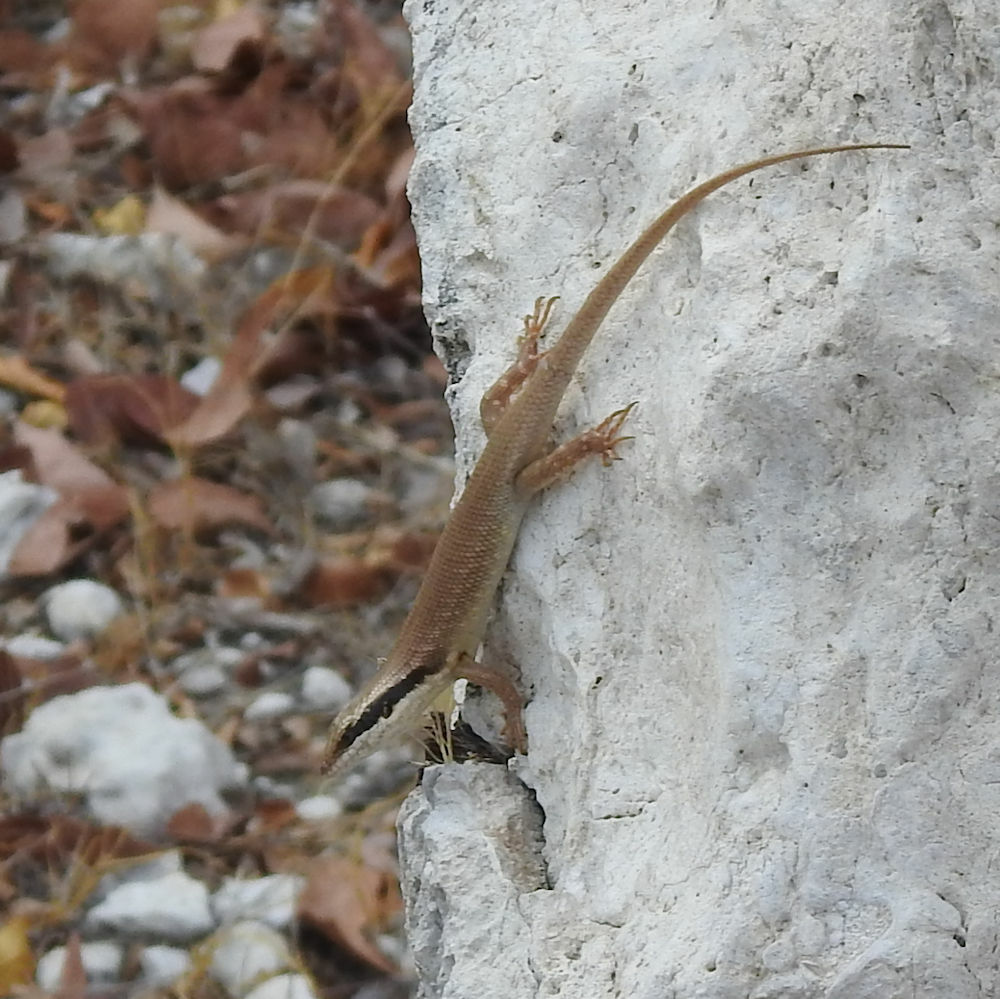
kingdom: Animalia
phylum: Chordata
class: Squamata
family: Scincidae
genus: Trachylepis
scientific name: Trachylepis binotata
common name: Bocage's mabuya
